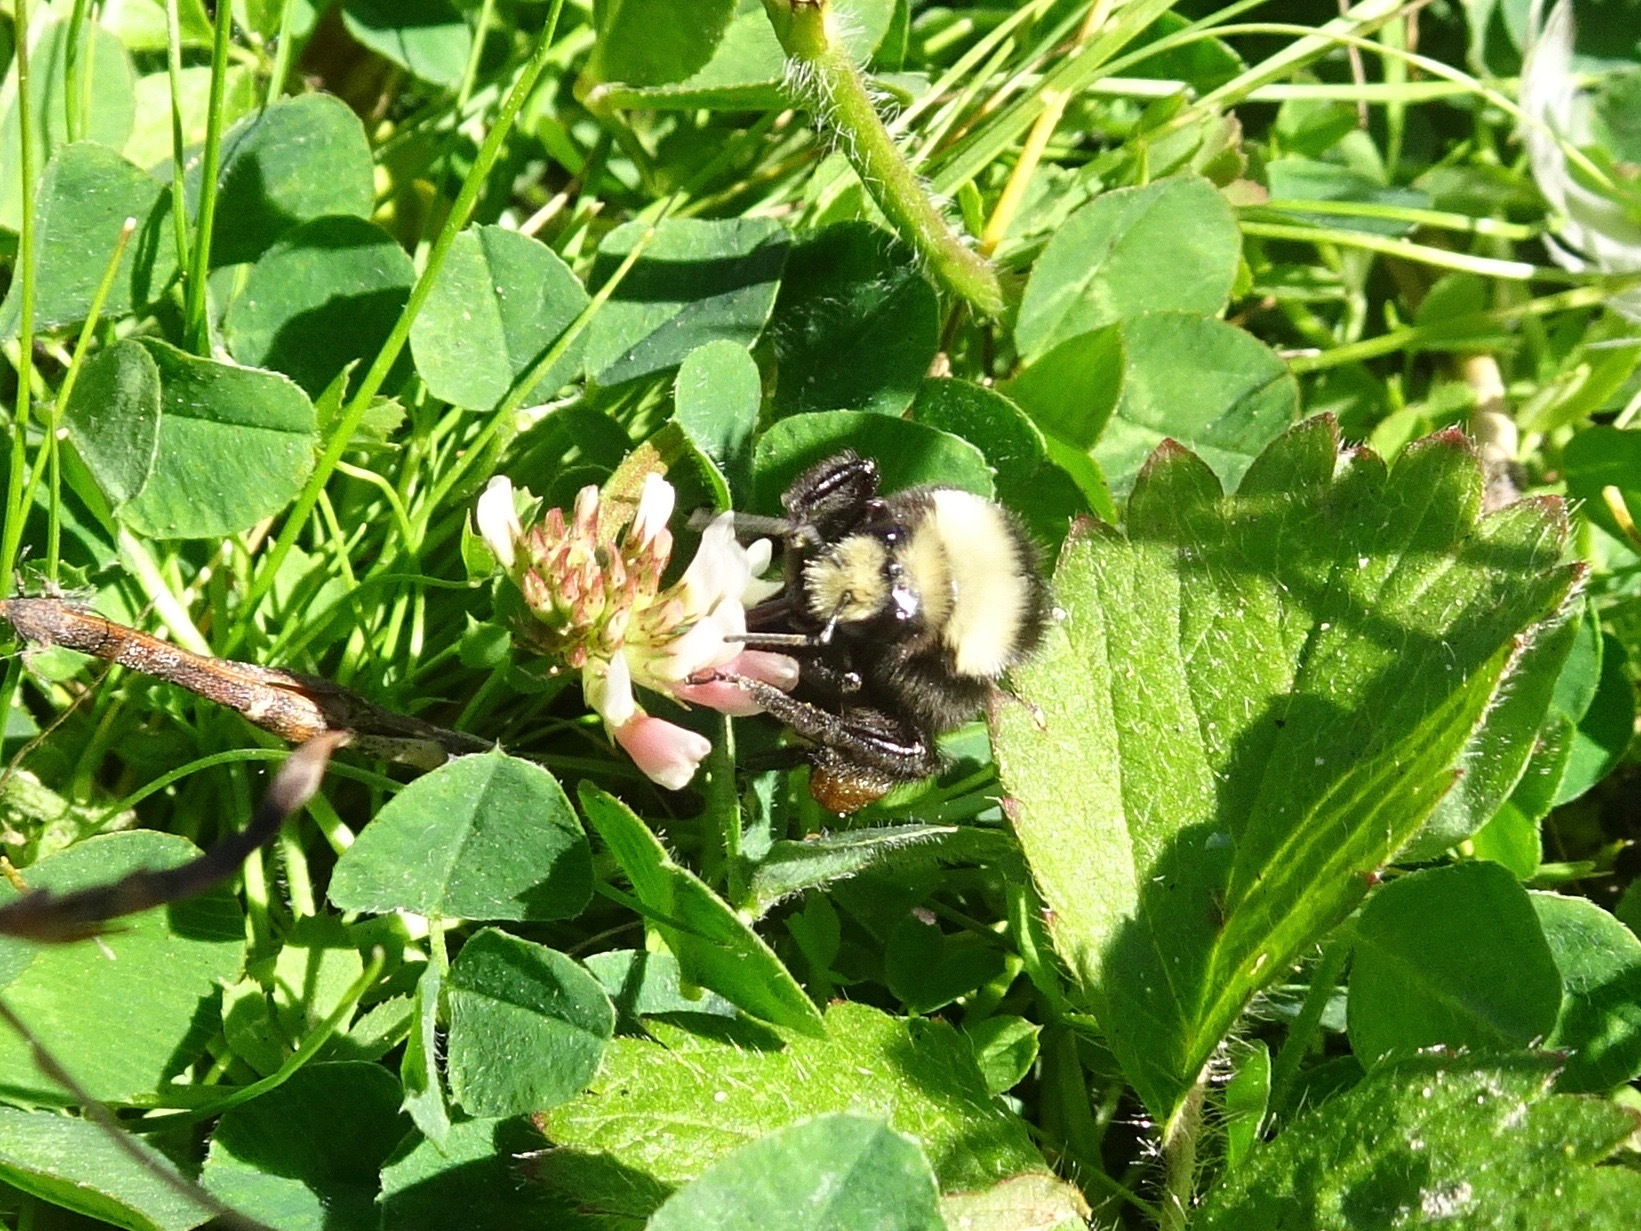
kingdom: Animalia
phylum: Arthropoda
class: Insecta
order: Hymenoptera
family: Apidae
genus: Bombus
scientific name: Bombus vosnesenskii
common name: Vosnesensky bumble bee
